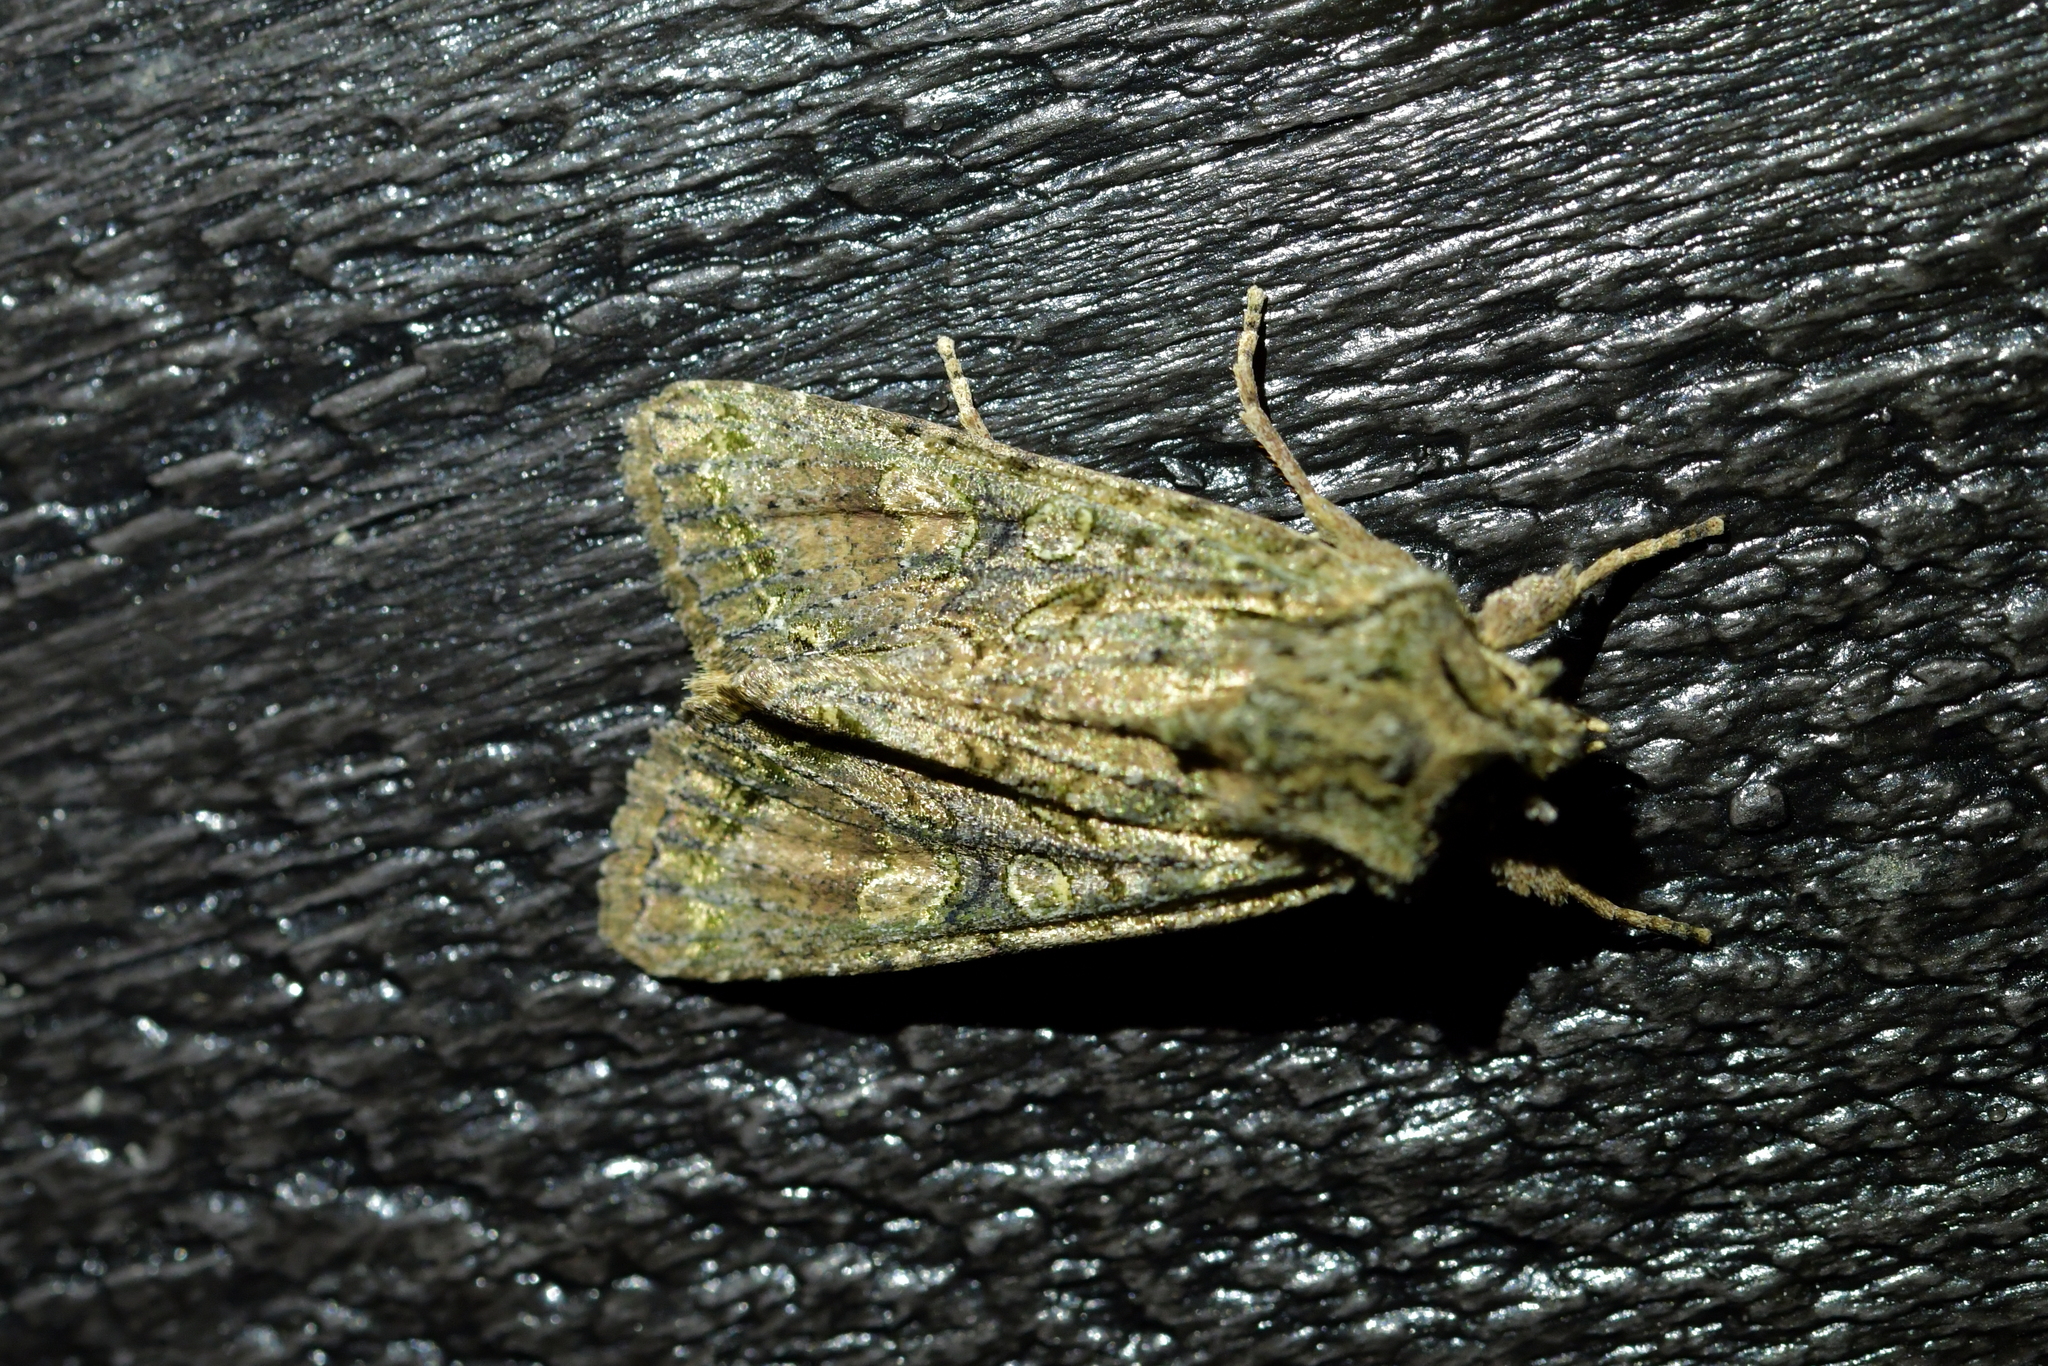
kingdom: Animalia
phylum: Arthropoda
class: Insecta
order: Lepidoptera
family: Noctuidae
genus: Ichneutica
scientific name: Ichneutica mutans
